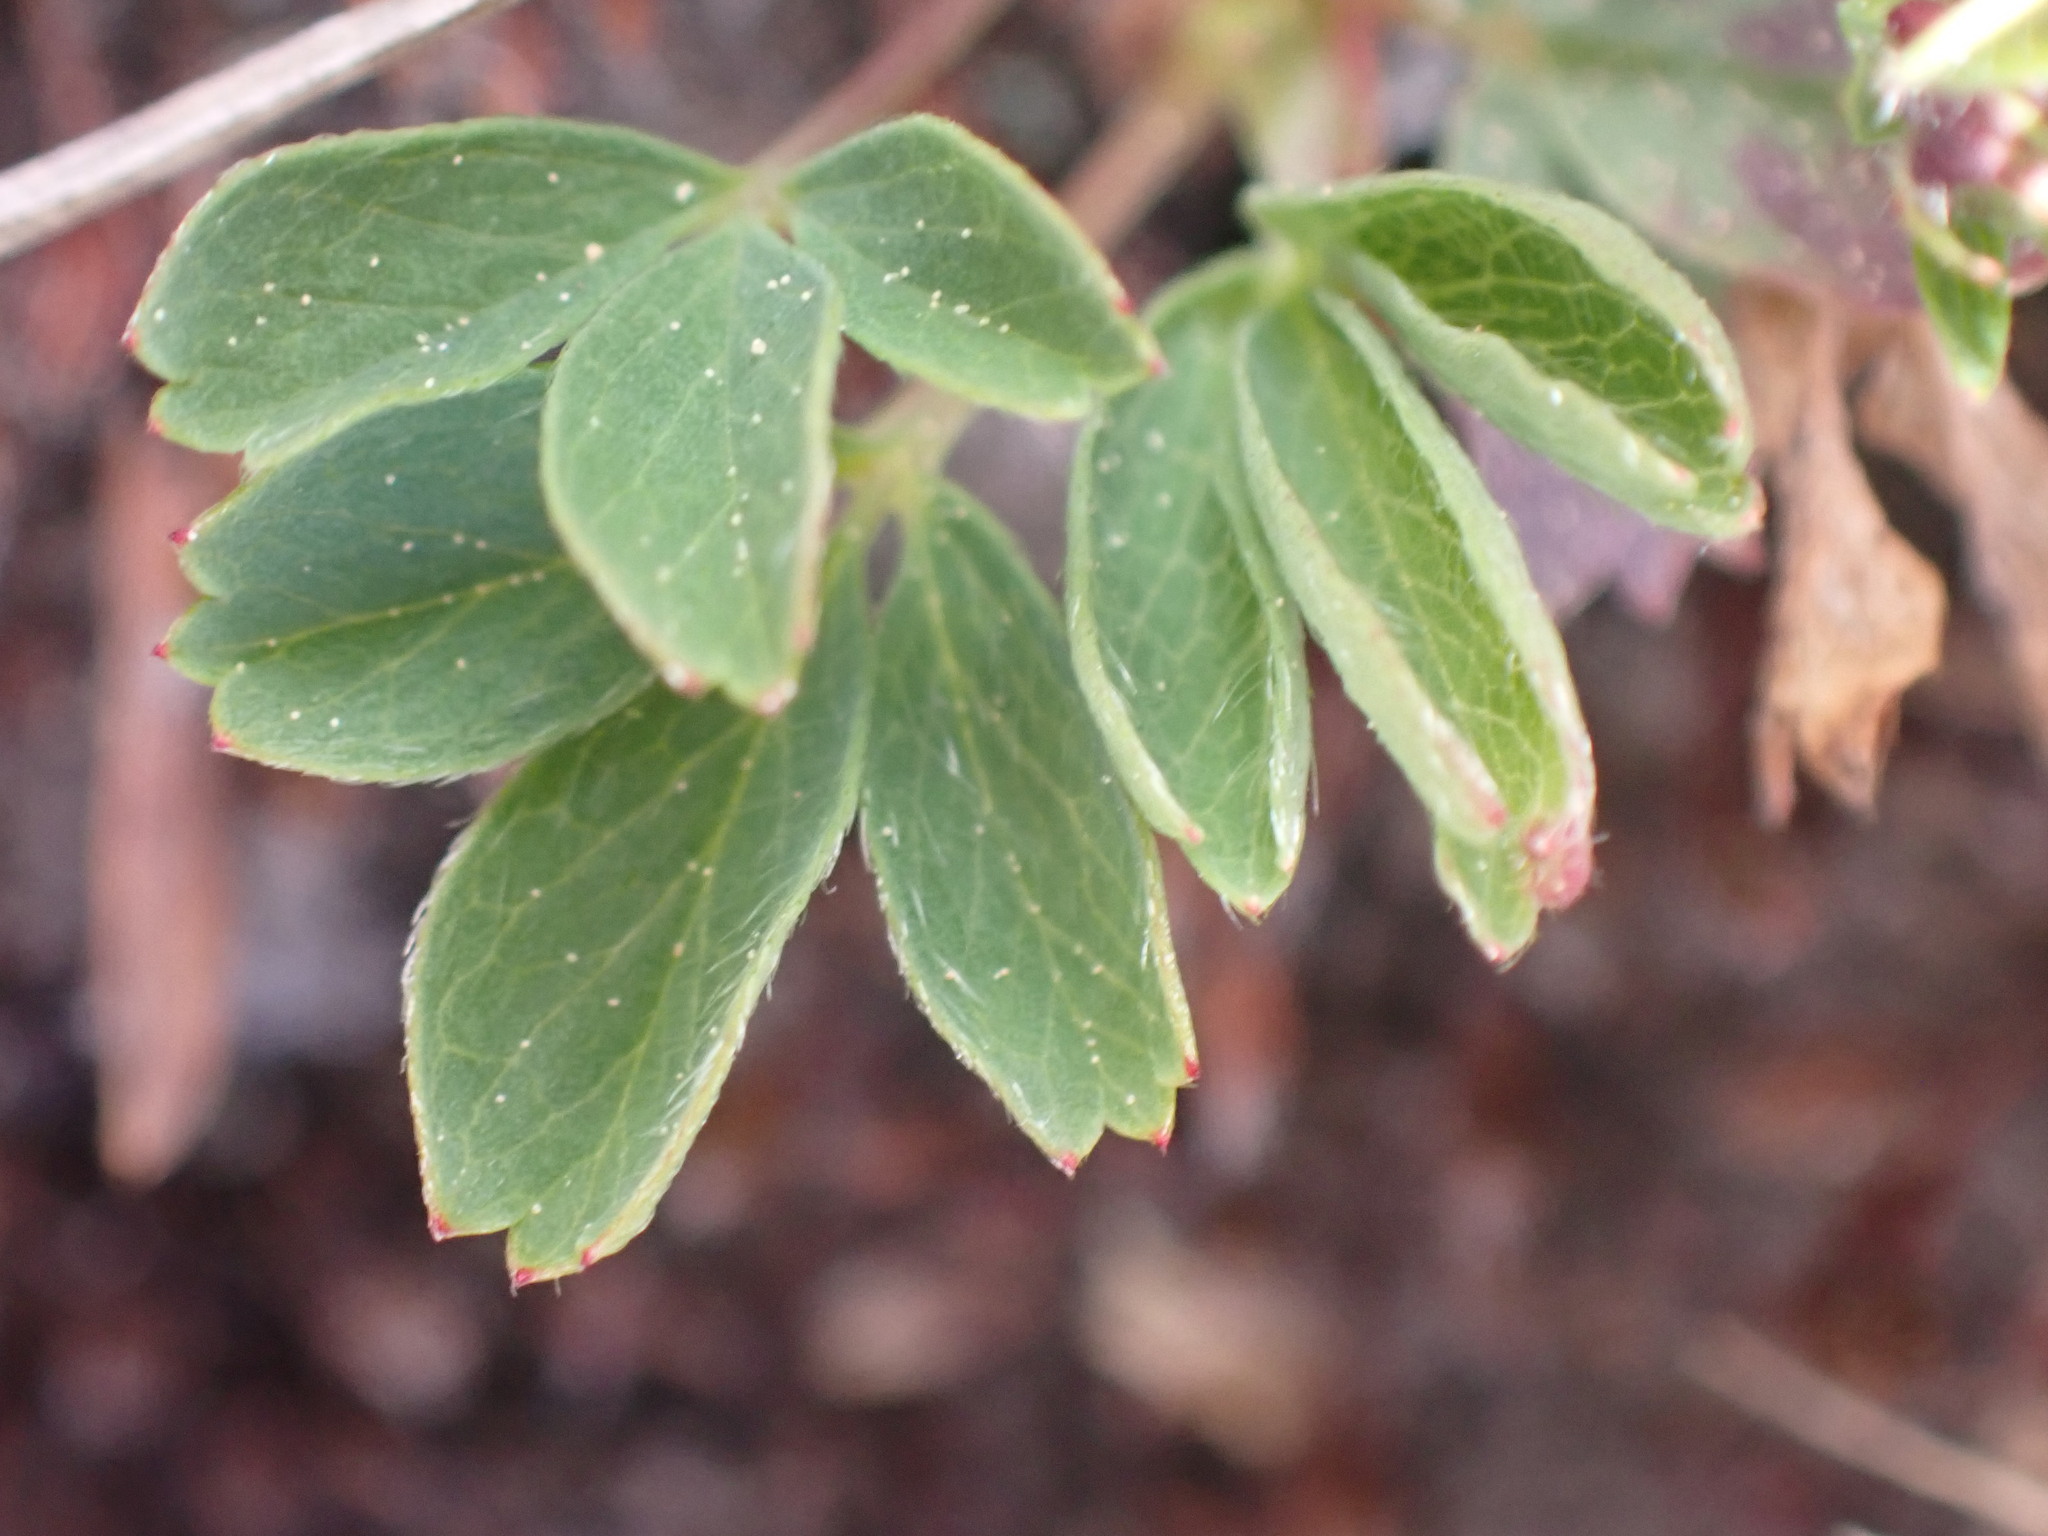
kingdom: Plantae
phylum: Tracheophyta
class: Magnoliopsida
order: Rosales
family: Rosaceae
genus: Sibbaldia
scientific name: Sibbaldia procumbens
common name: Creeping sibbaldia
